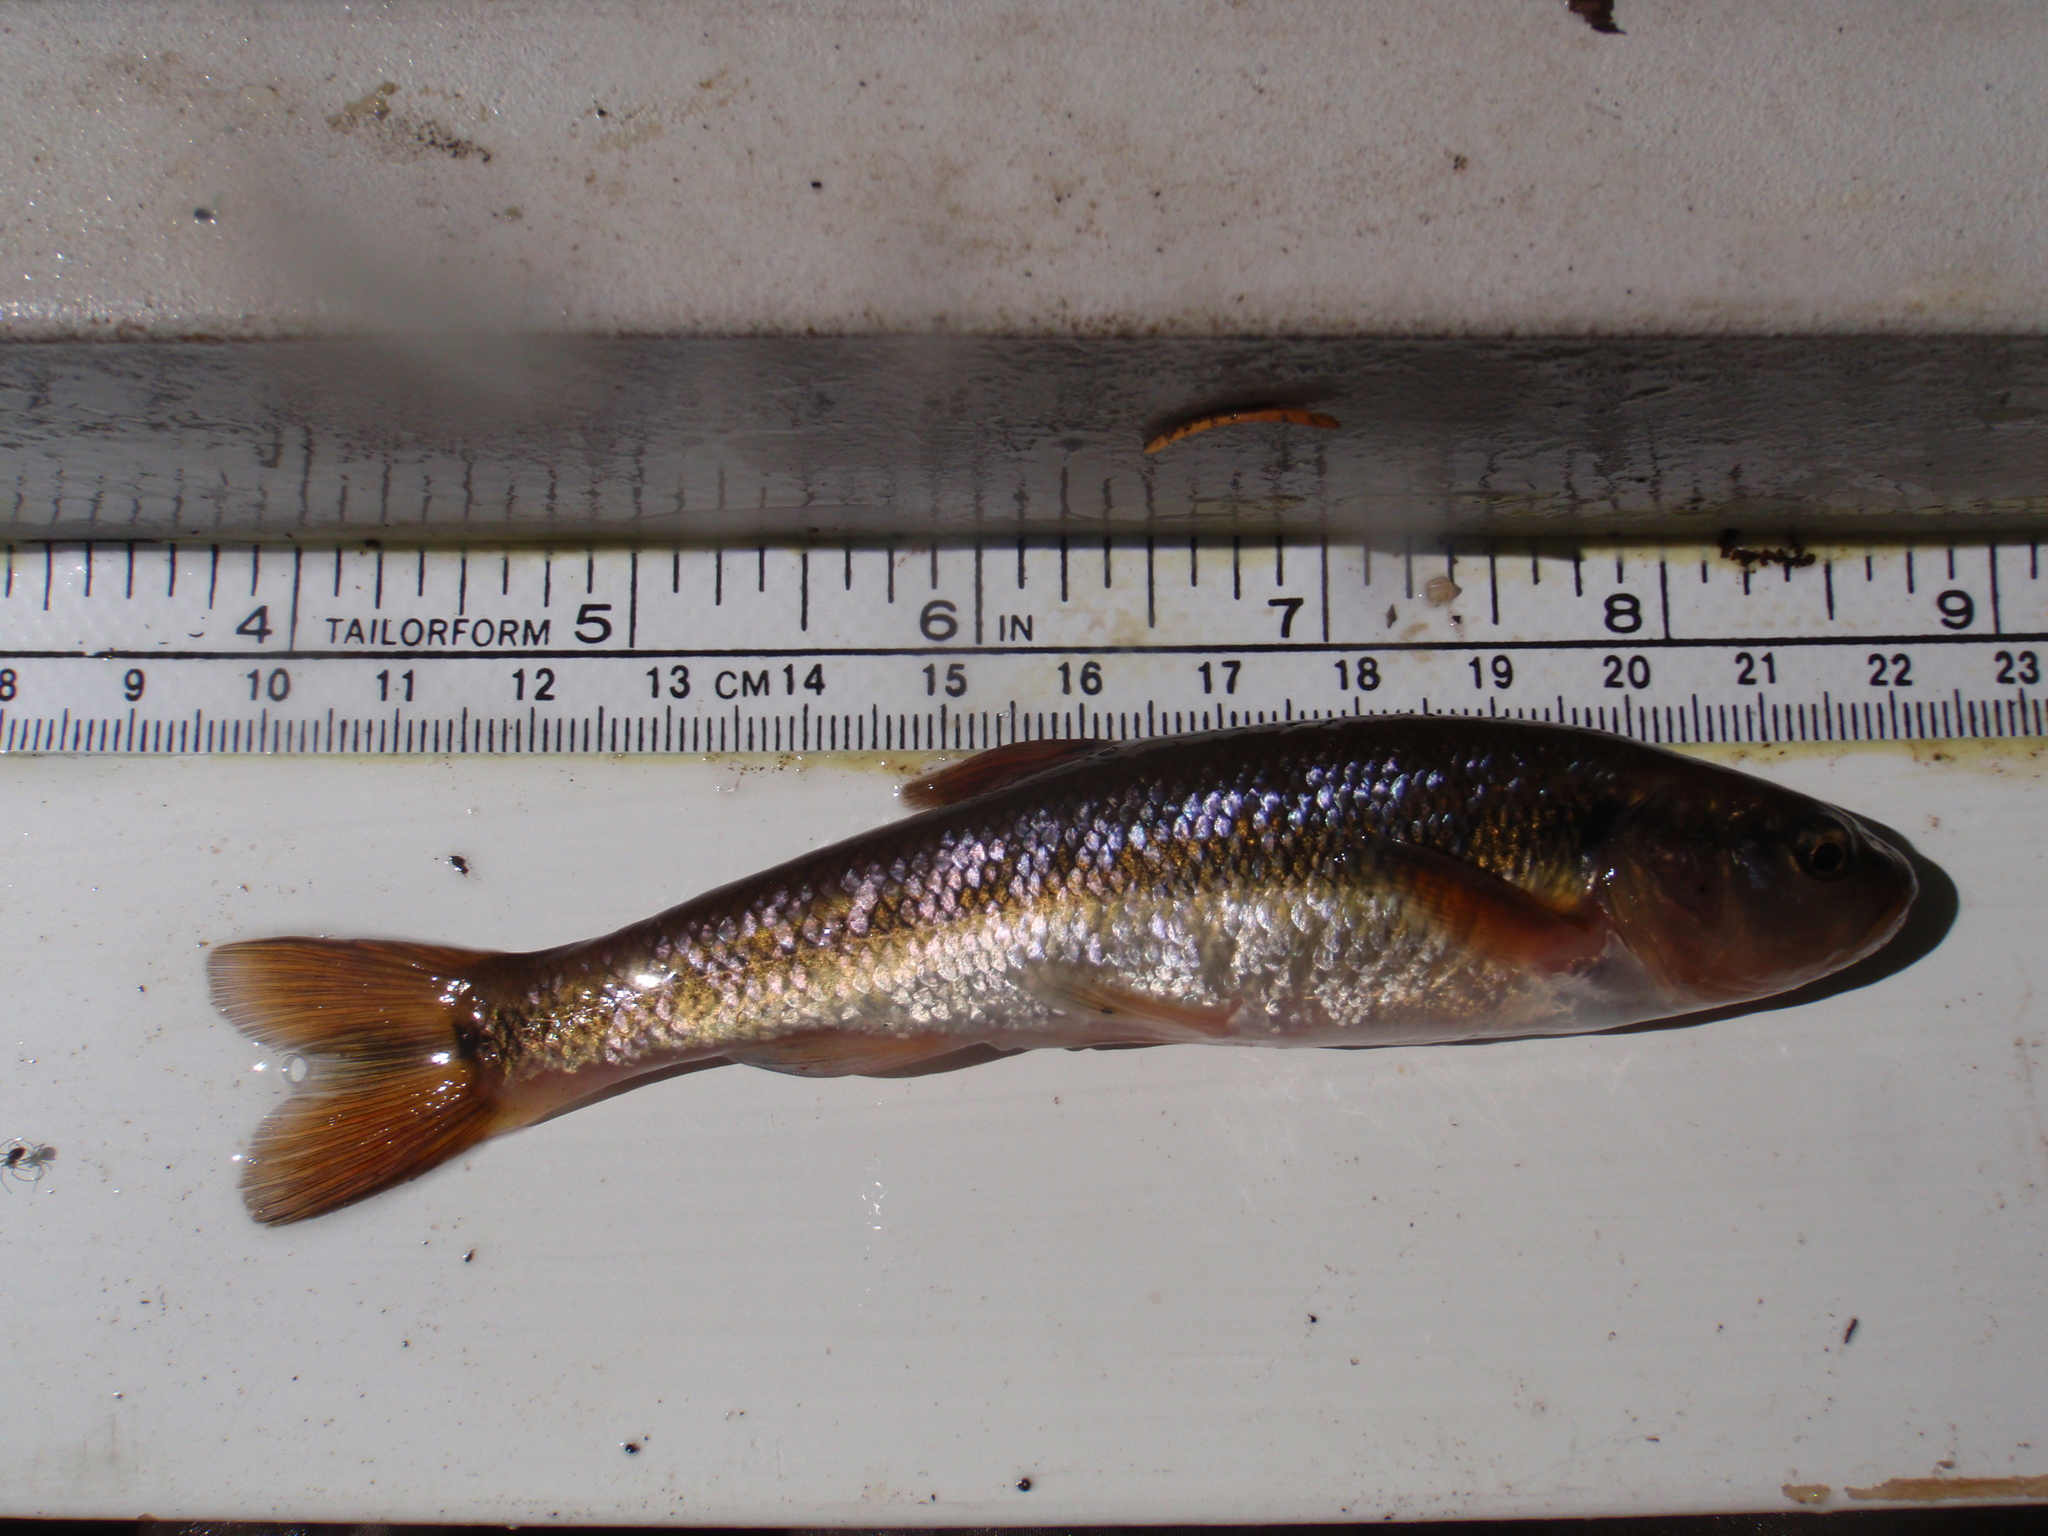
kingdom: Animalia
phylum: Chordata
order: Cypriniformes
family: Cyprinidae
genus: Semotilus
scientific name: Semotilus atromaculatus
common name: Creek chub
